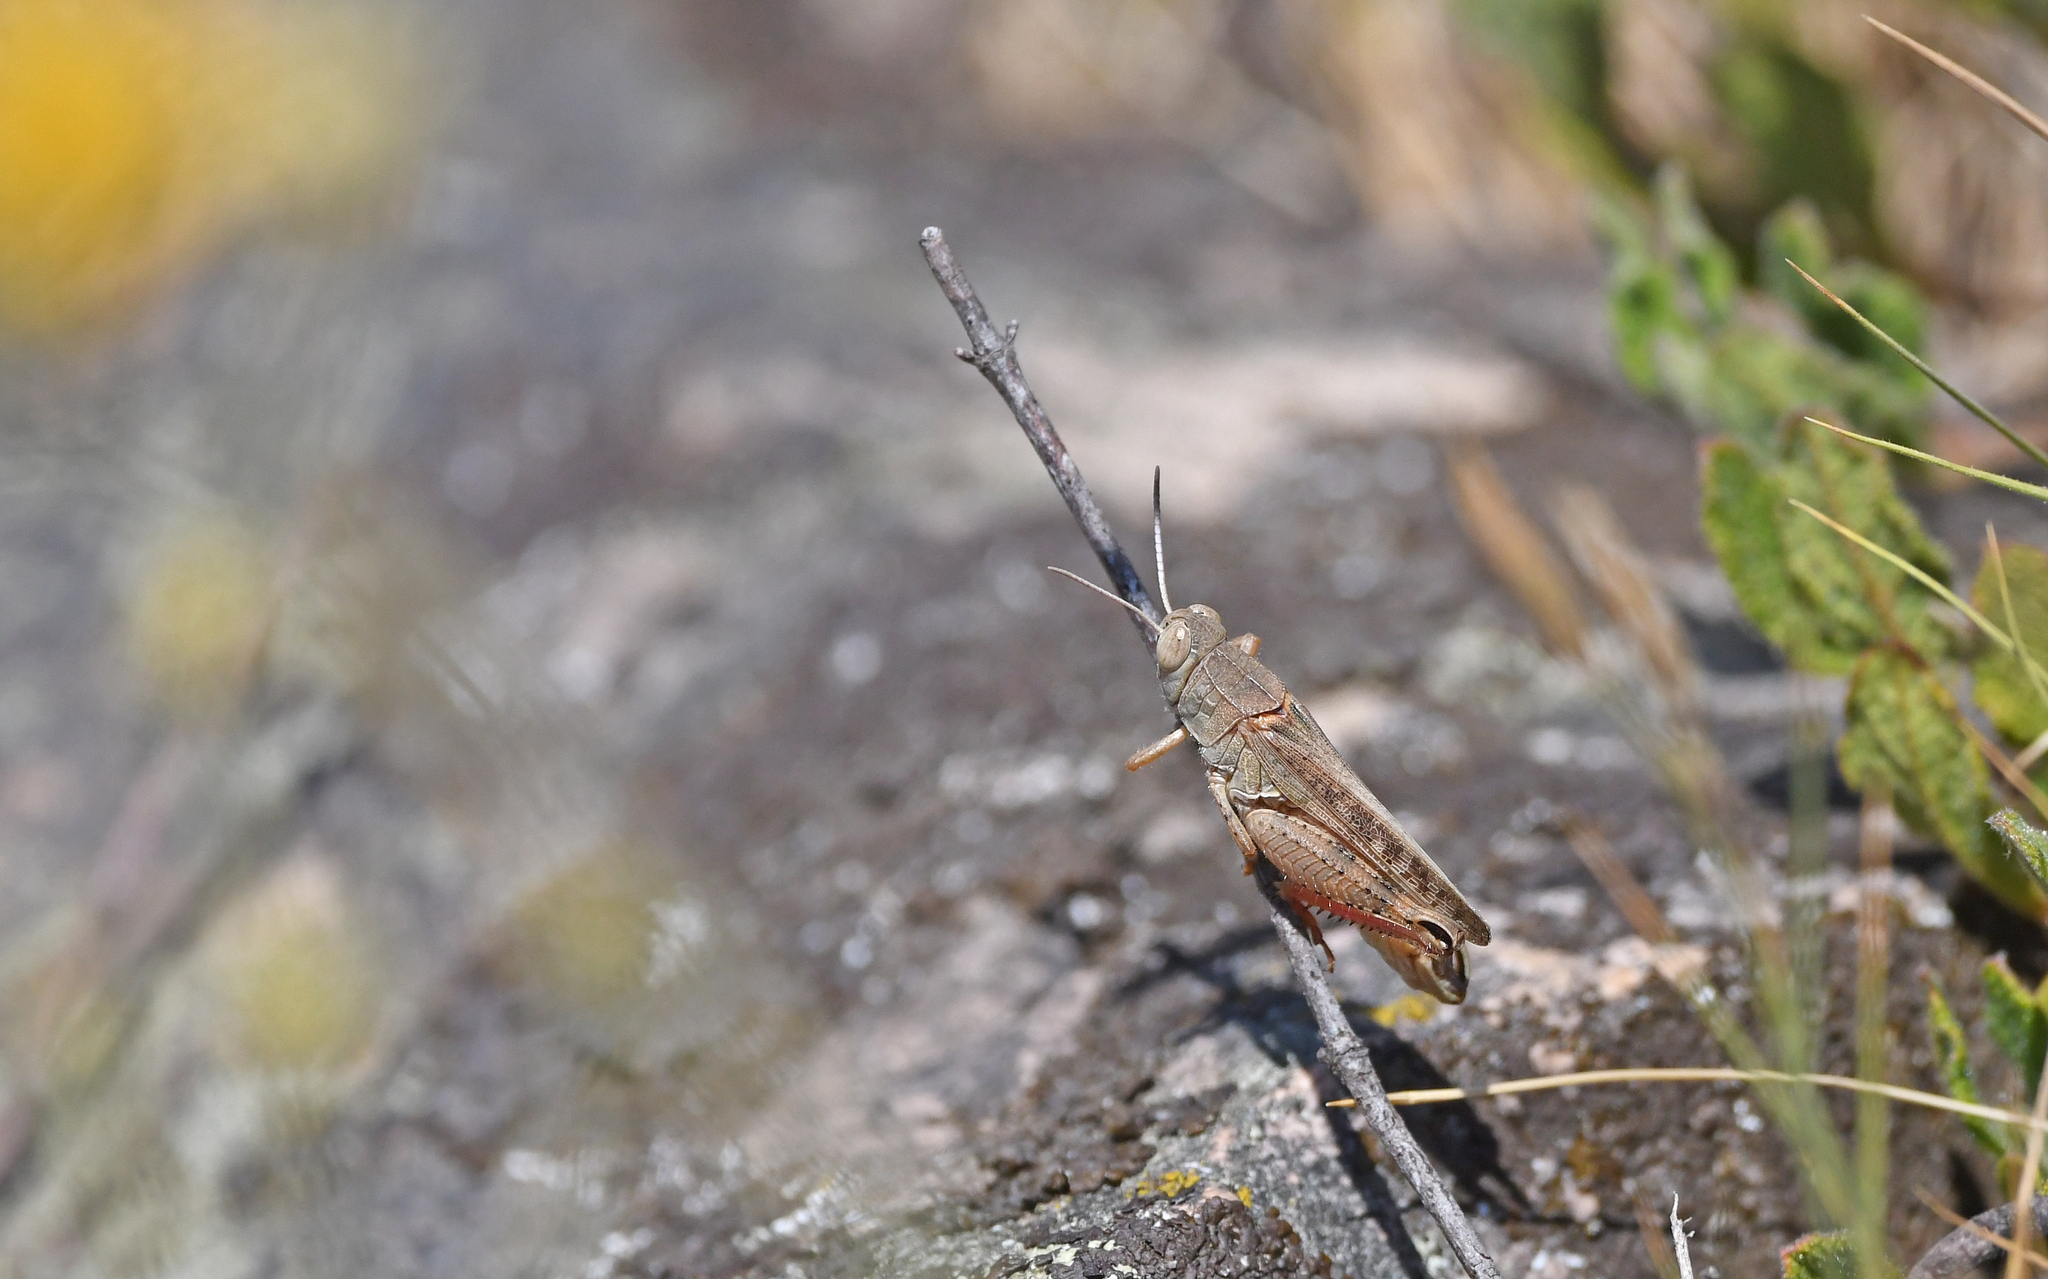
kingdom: Animalia
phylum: Arthropoda
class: Insecta
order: Orthoptera
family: Acrididae
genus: Calliptamus
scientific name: Calliptamus italicus
